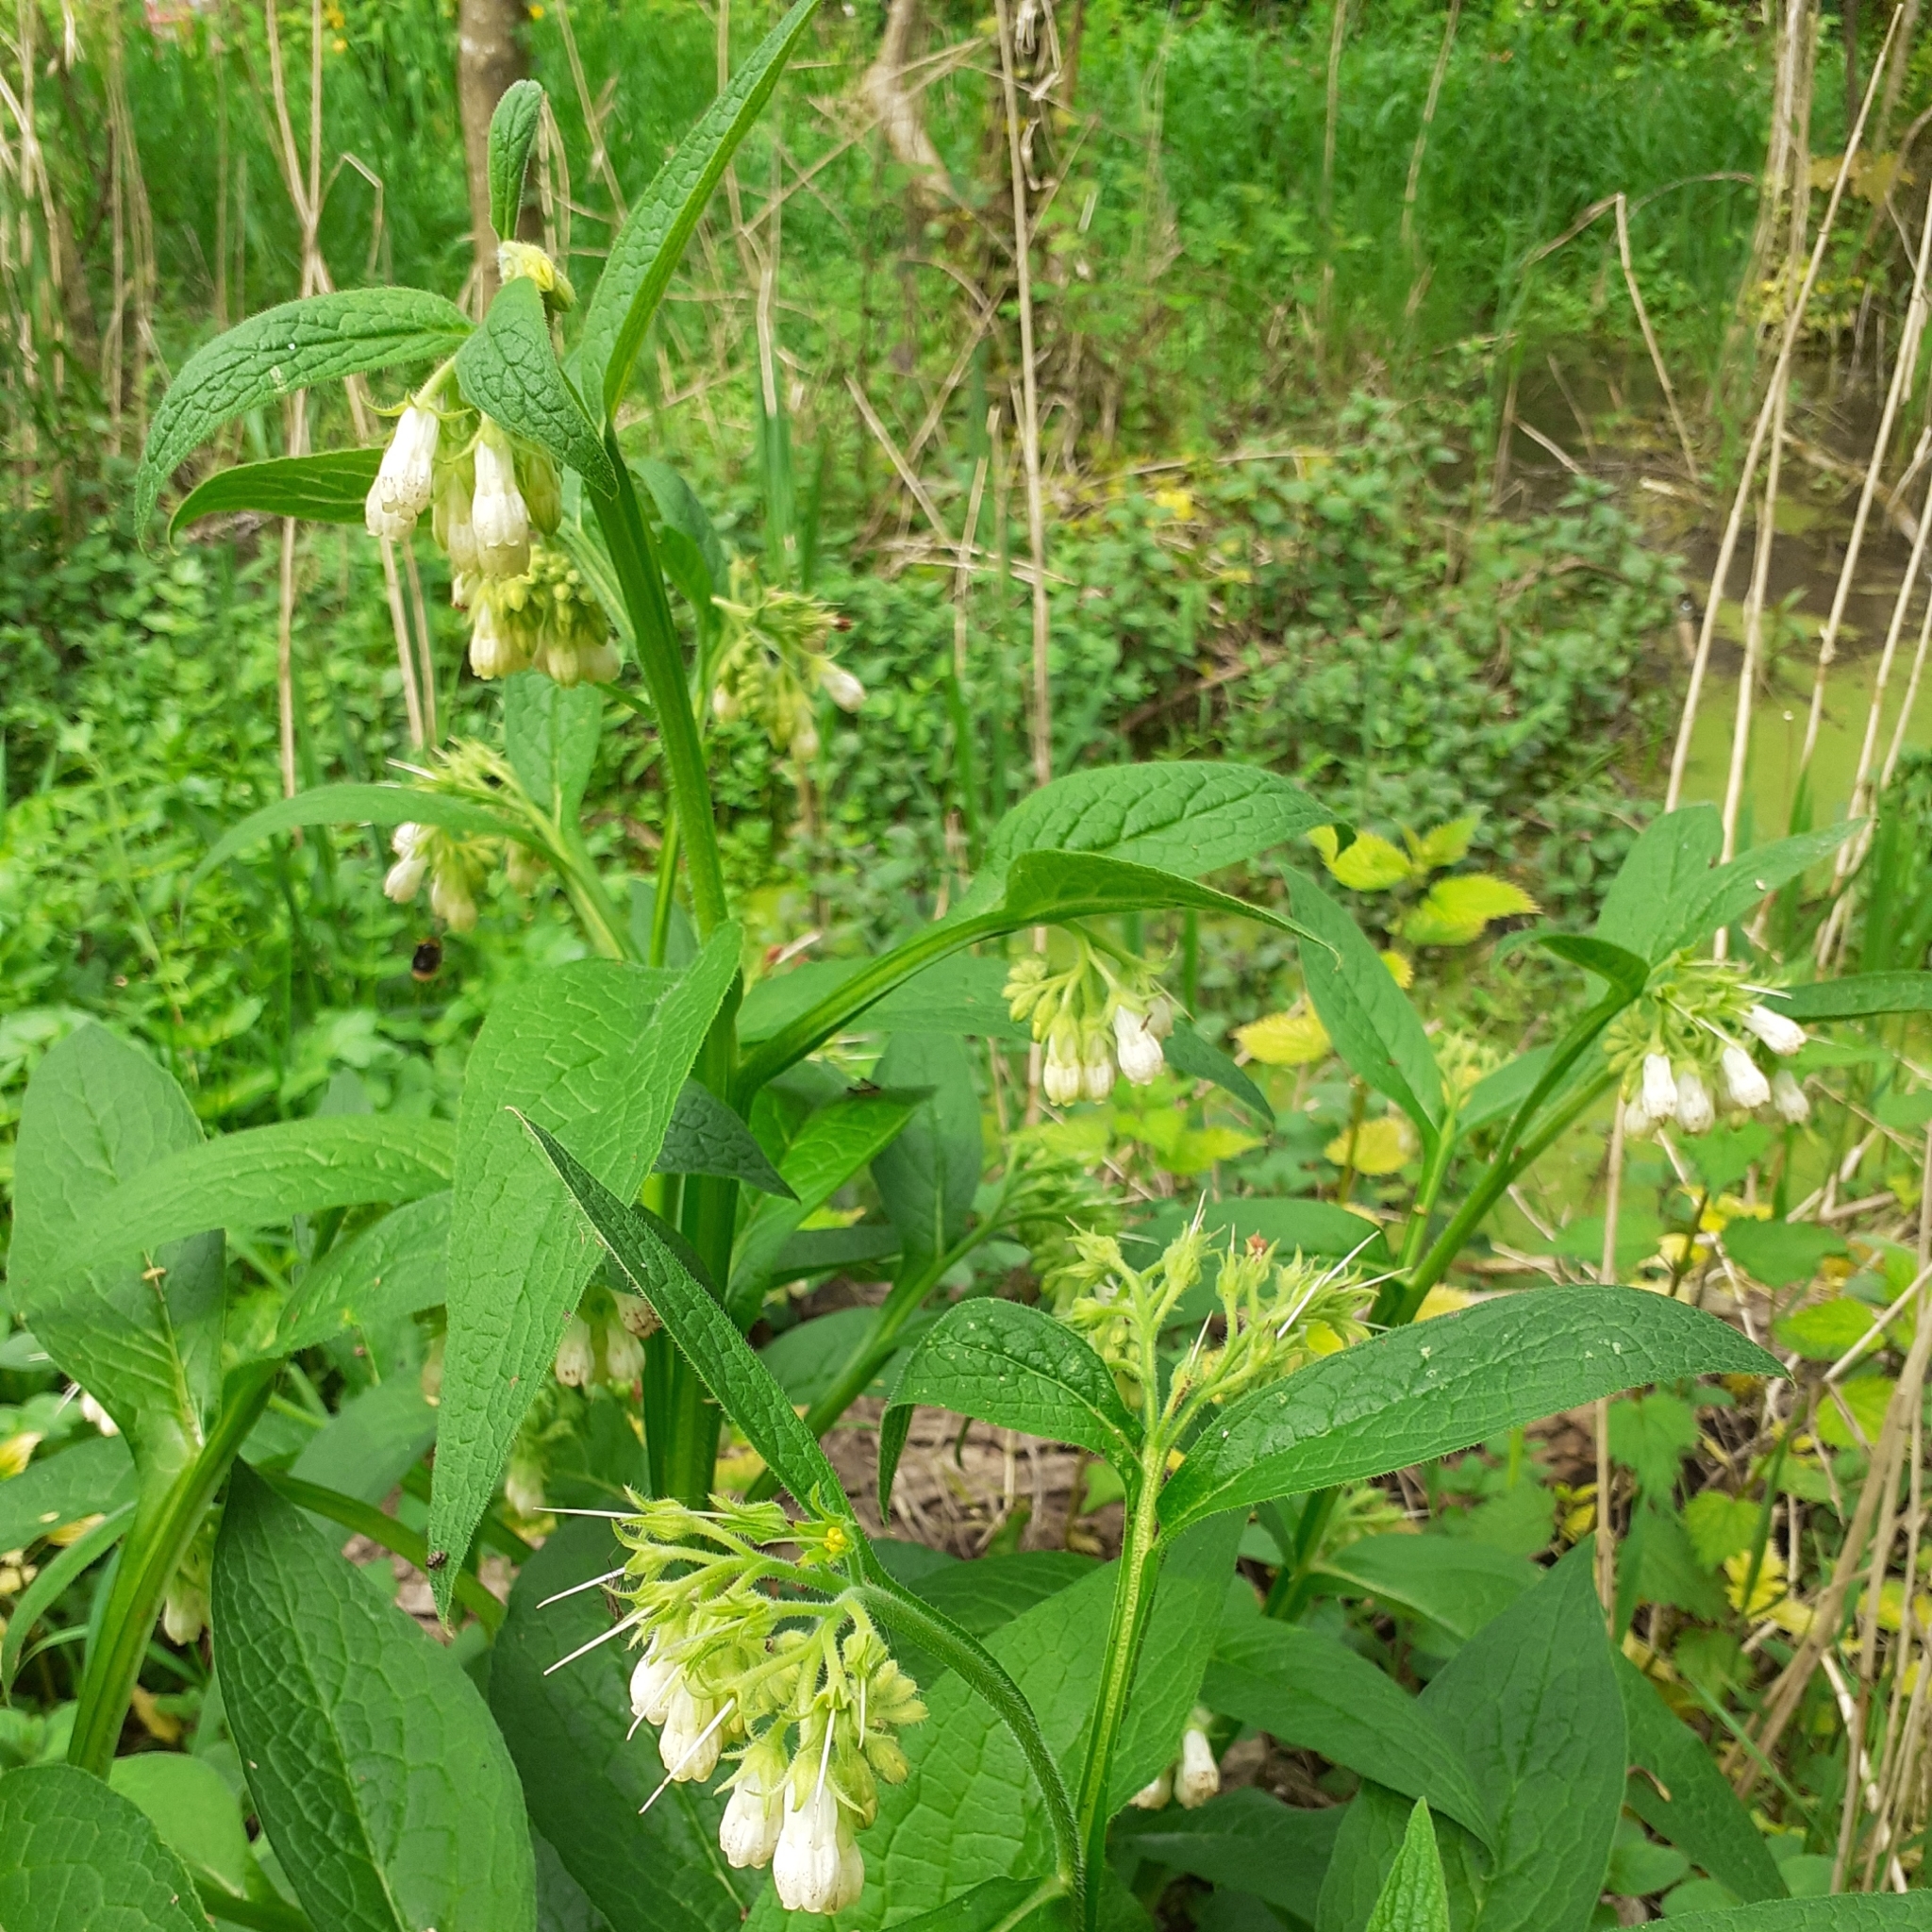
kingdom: Plantae
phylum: Tracheophyta
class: Magnoliopsida
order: Boraginales
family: Boraginaceae
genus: Symphytum
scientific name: Symphytum officinale
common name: Common comfrey
